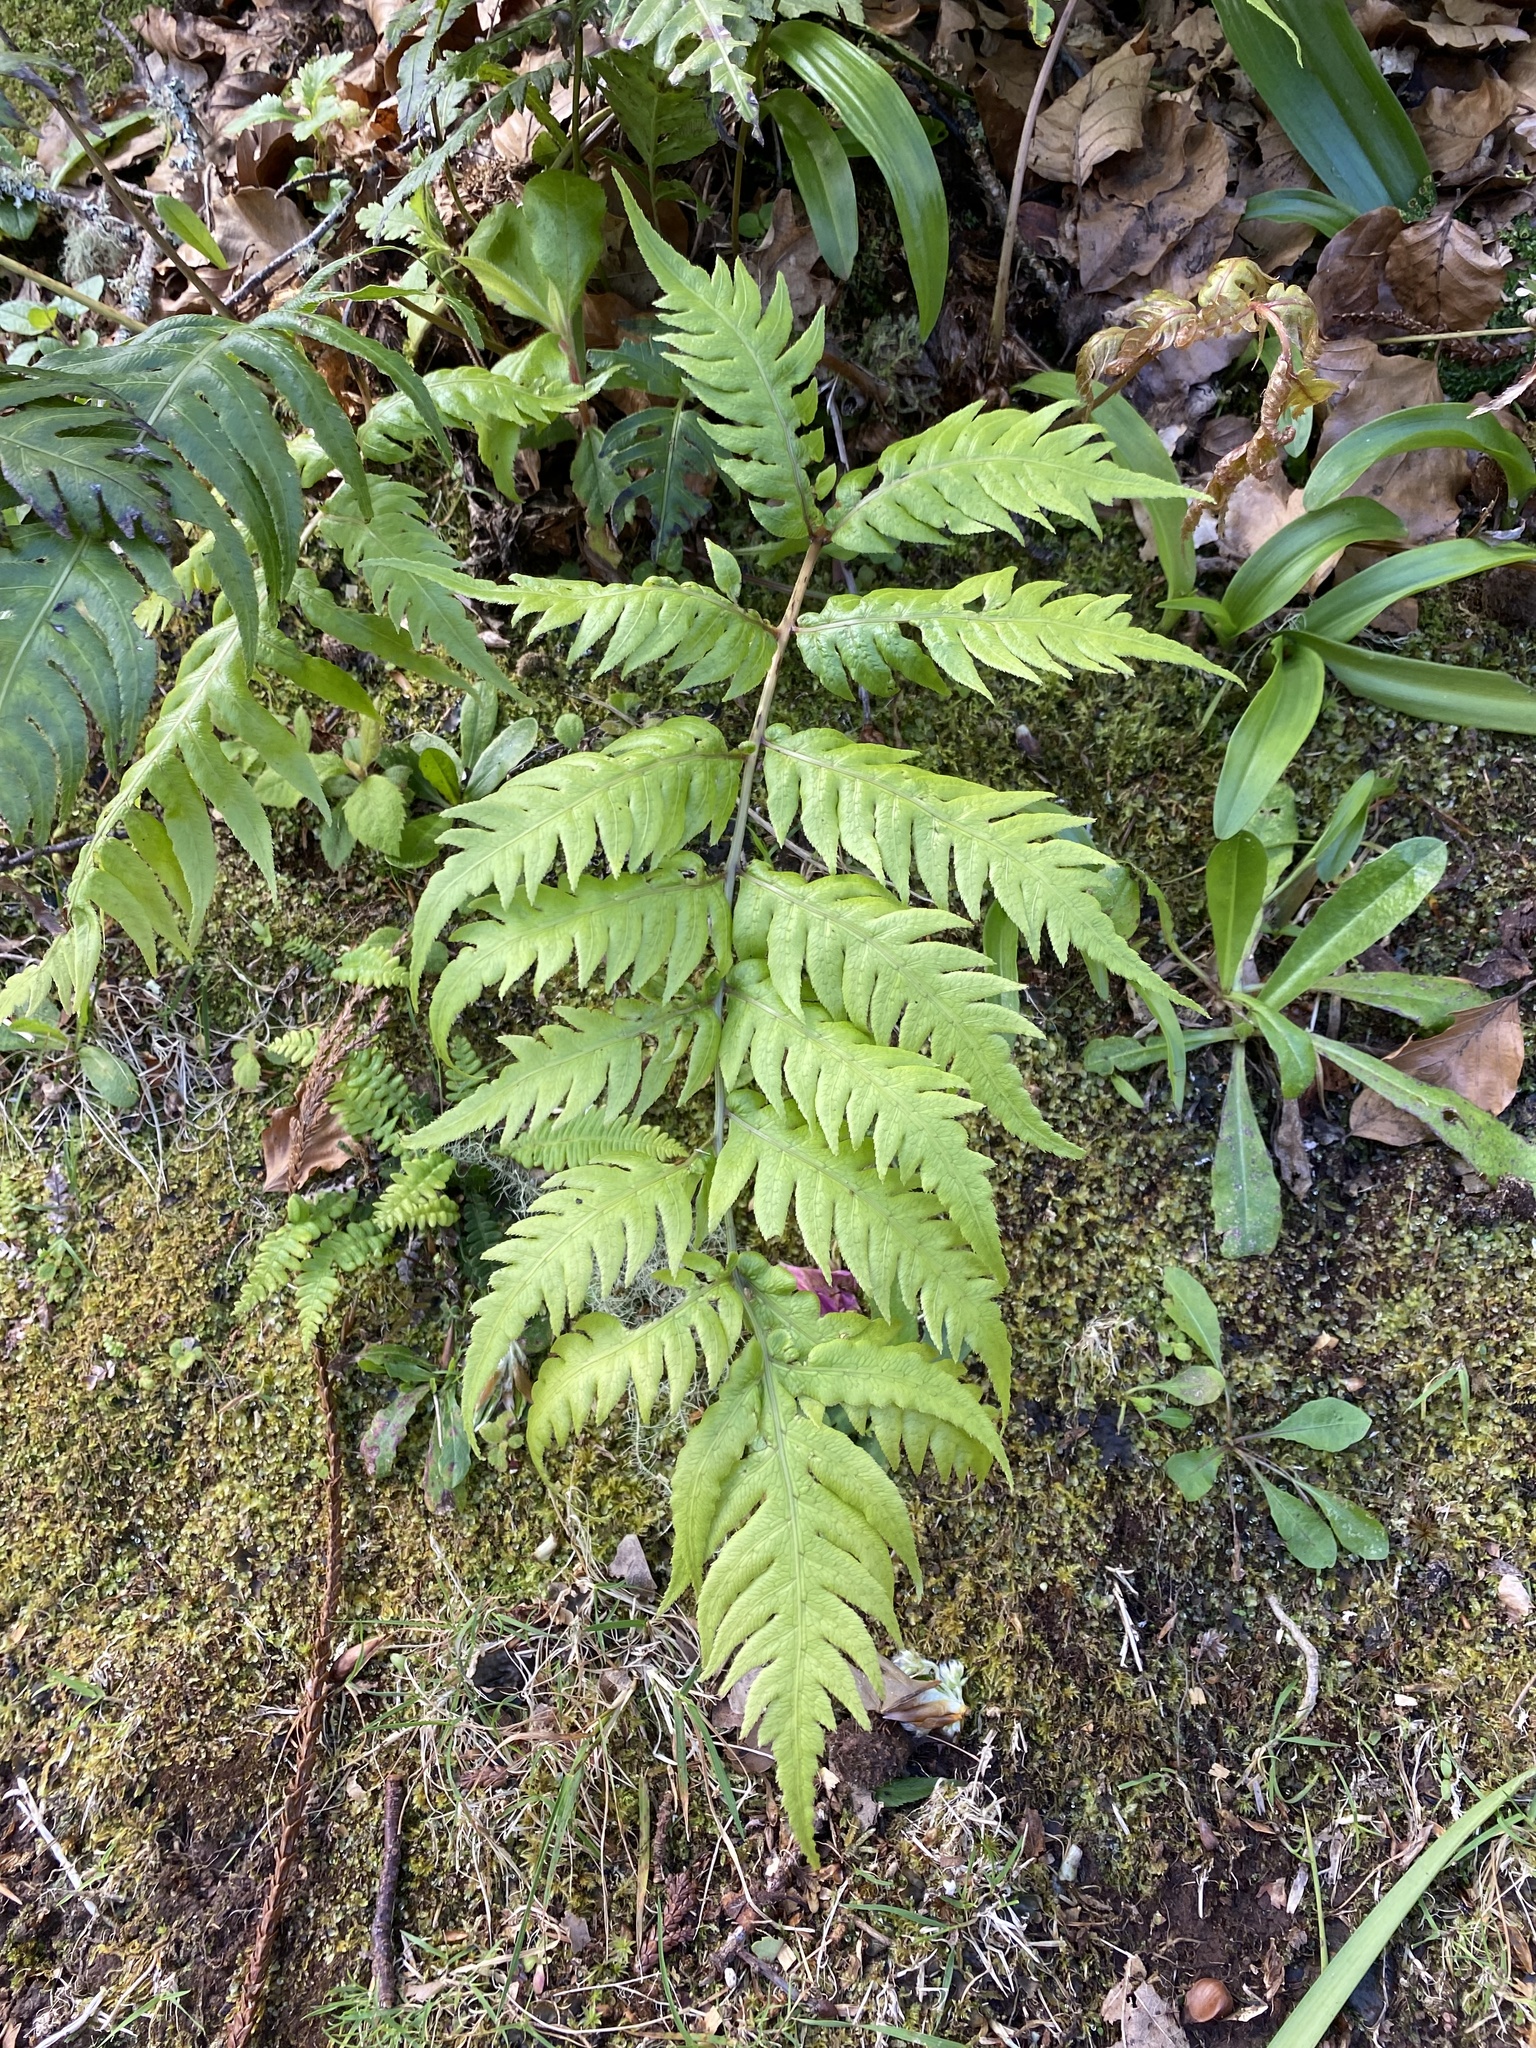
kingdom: Plantae
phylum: Tracheophyta
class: Polypodiopsida
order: Polypodiales
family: Blechnaceae
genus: Woodwardia
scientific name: Woodwardia radicans
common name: Rooting chainfern
